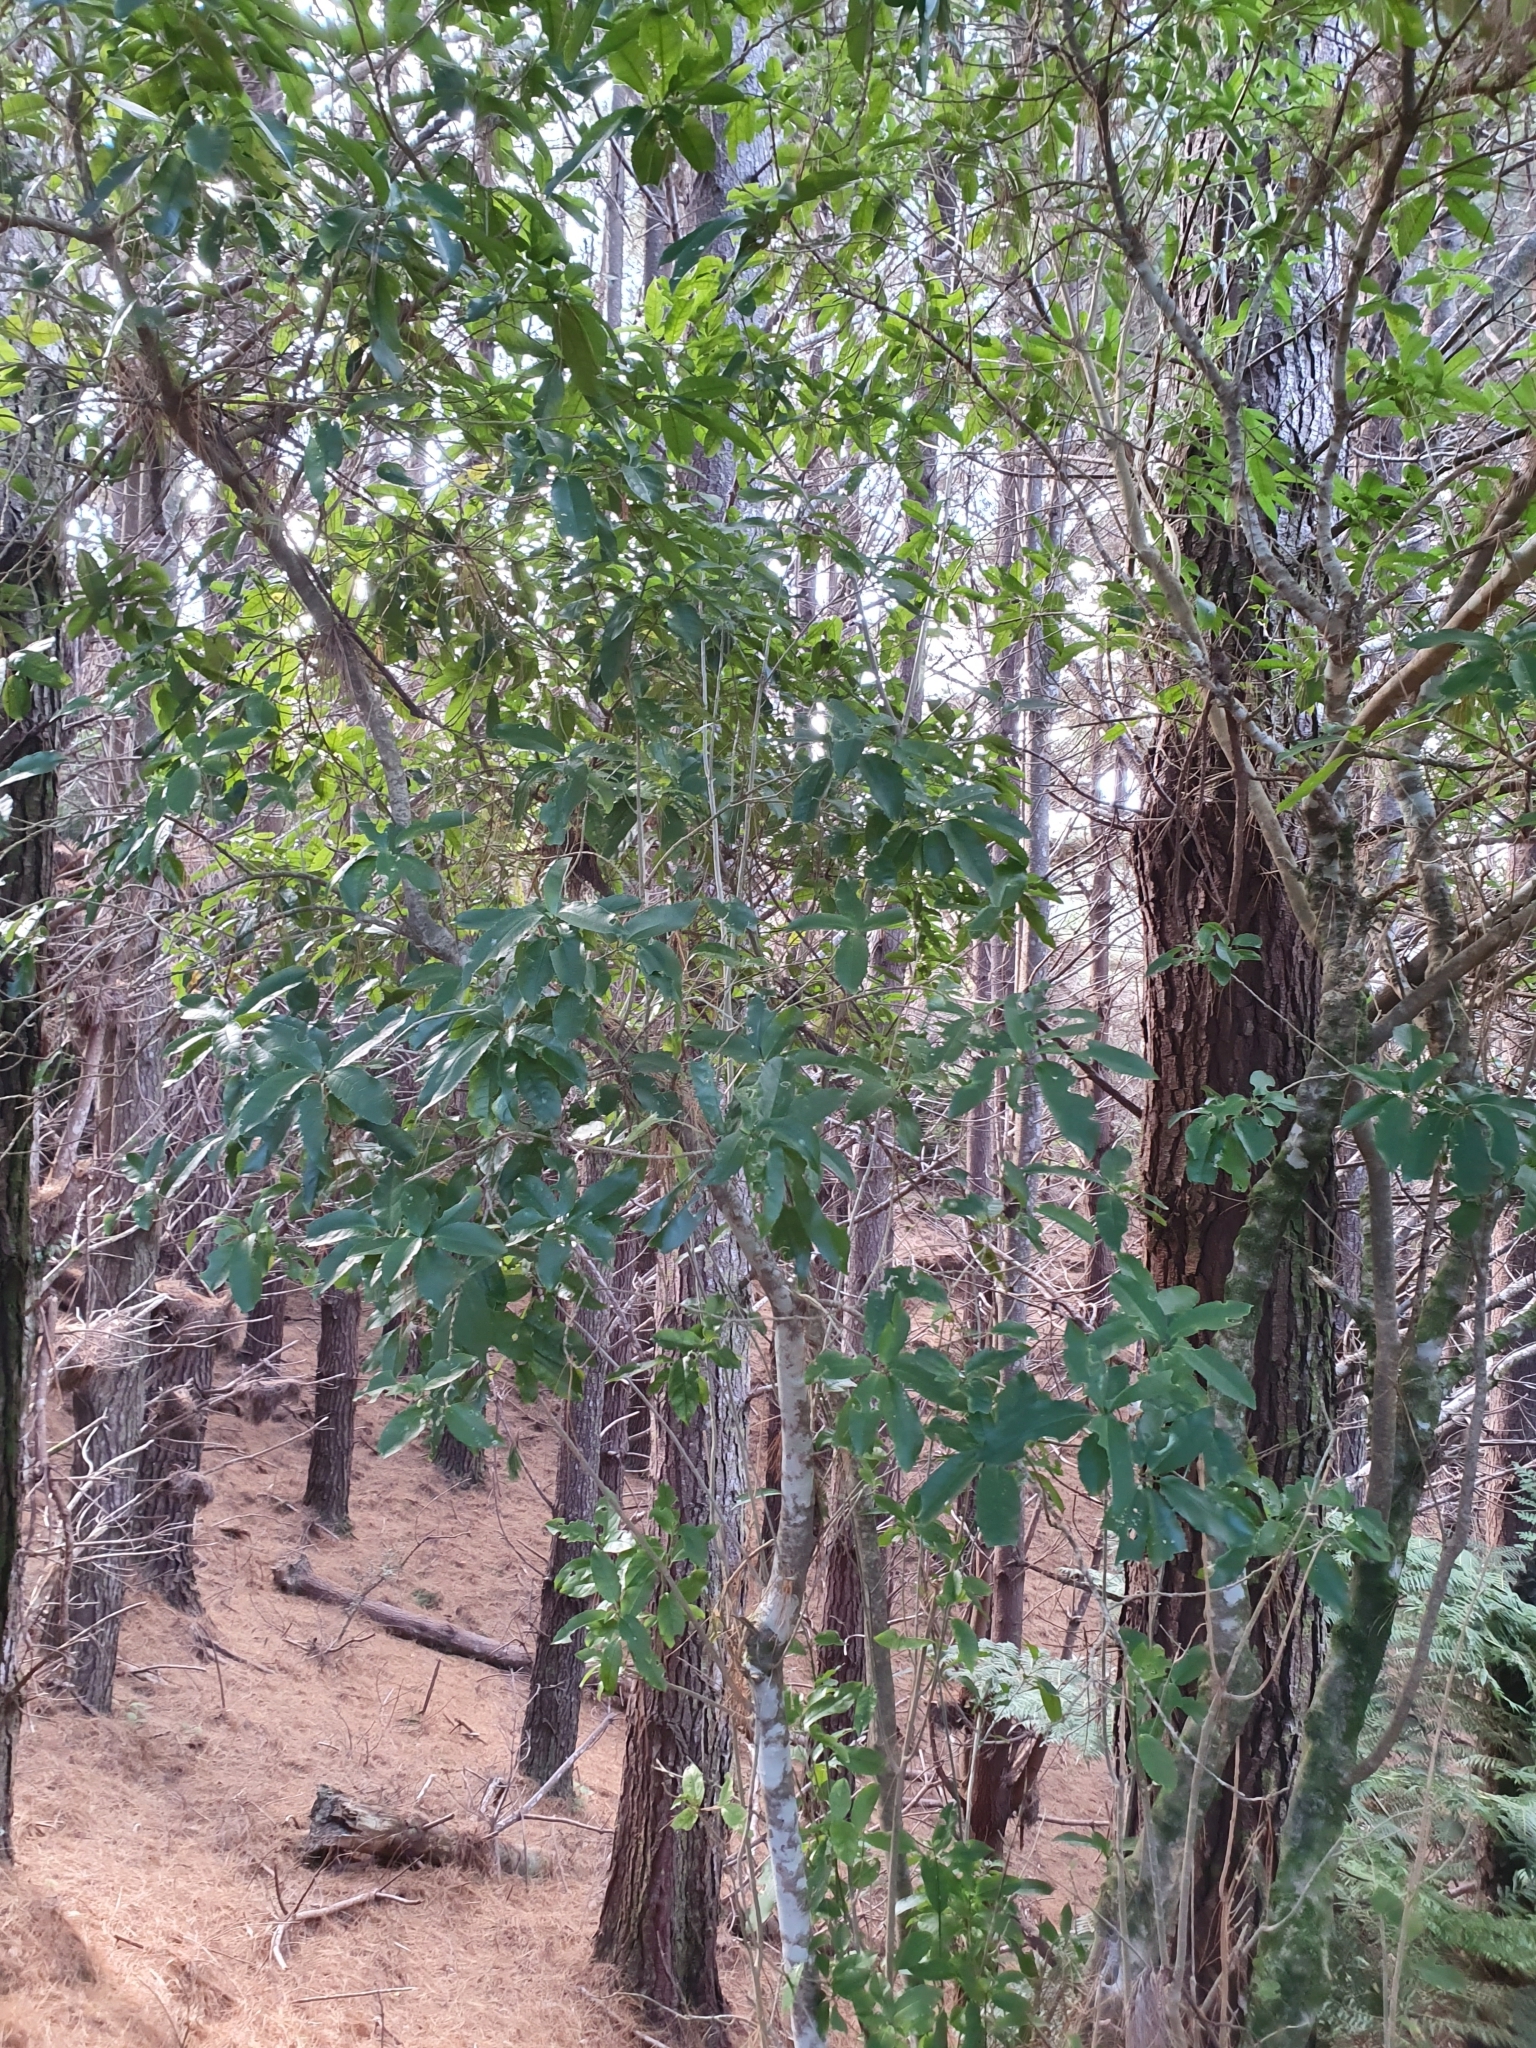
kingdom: Plantae
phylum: Tracheophyta
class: Magnoliopsida
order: Malpighiales
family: Violaceae
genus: Melicytus
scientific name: Melicytus ramiflorus
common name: Mahoe
